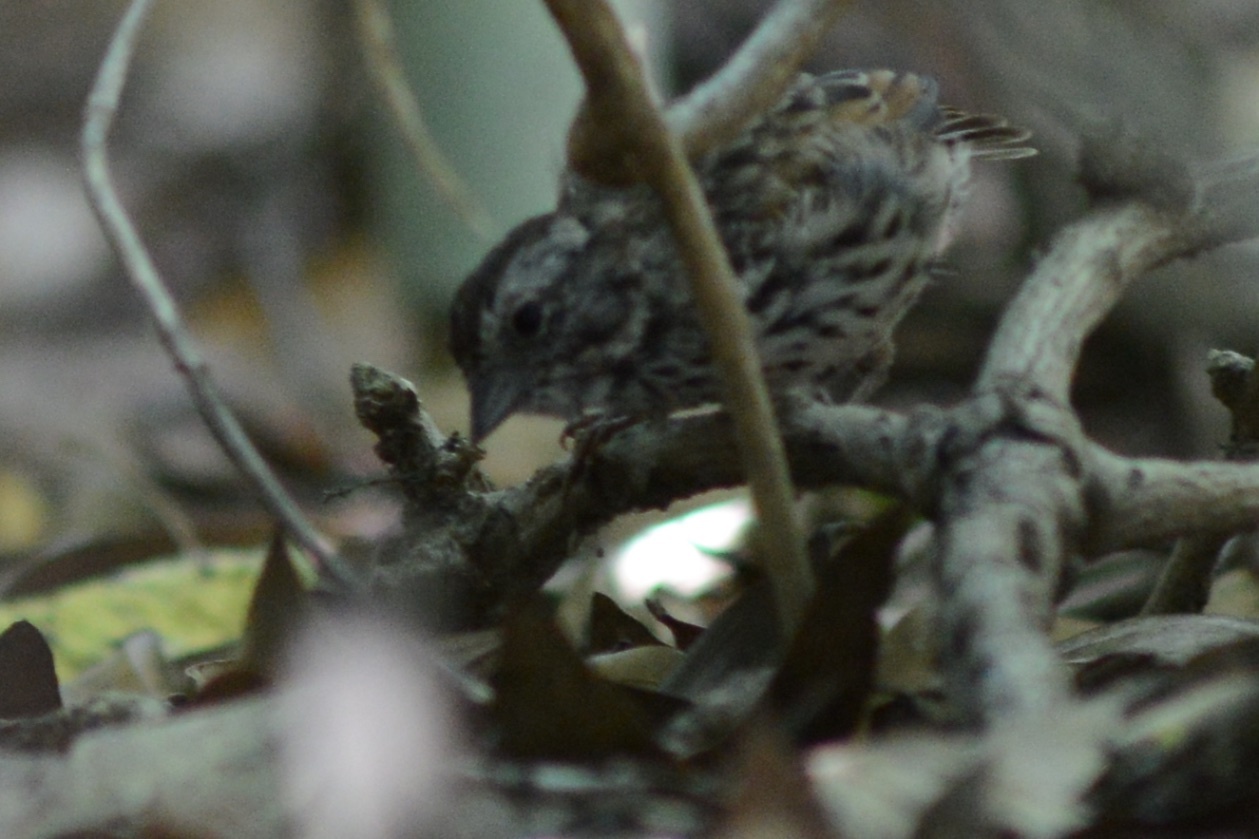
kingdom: Animalia
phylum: Chordata
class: Aves
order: Passeriformes
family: Passerellidae
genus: Melospiza
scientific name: Melospiza melodia
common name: Song sparrow
